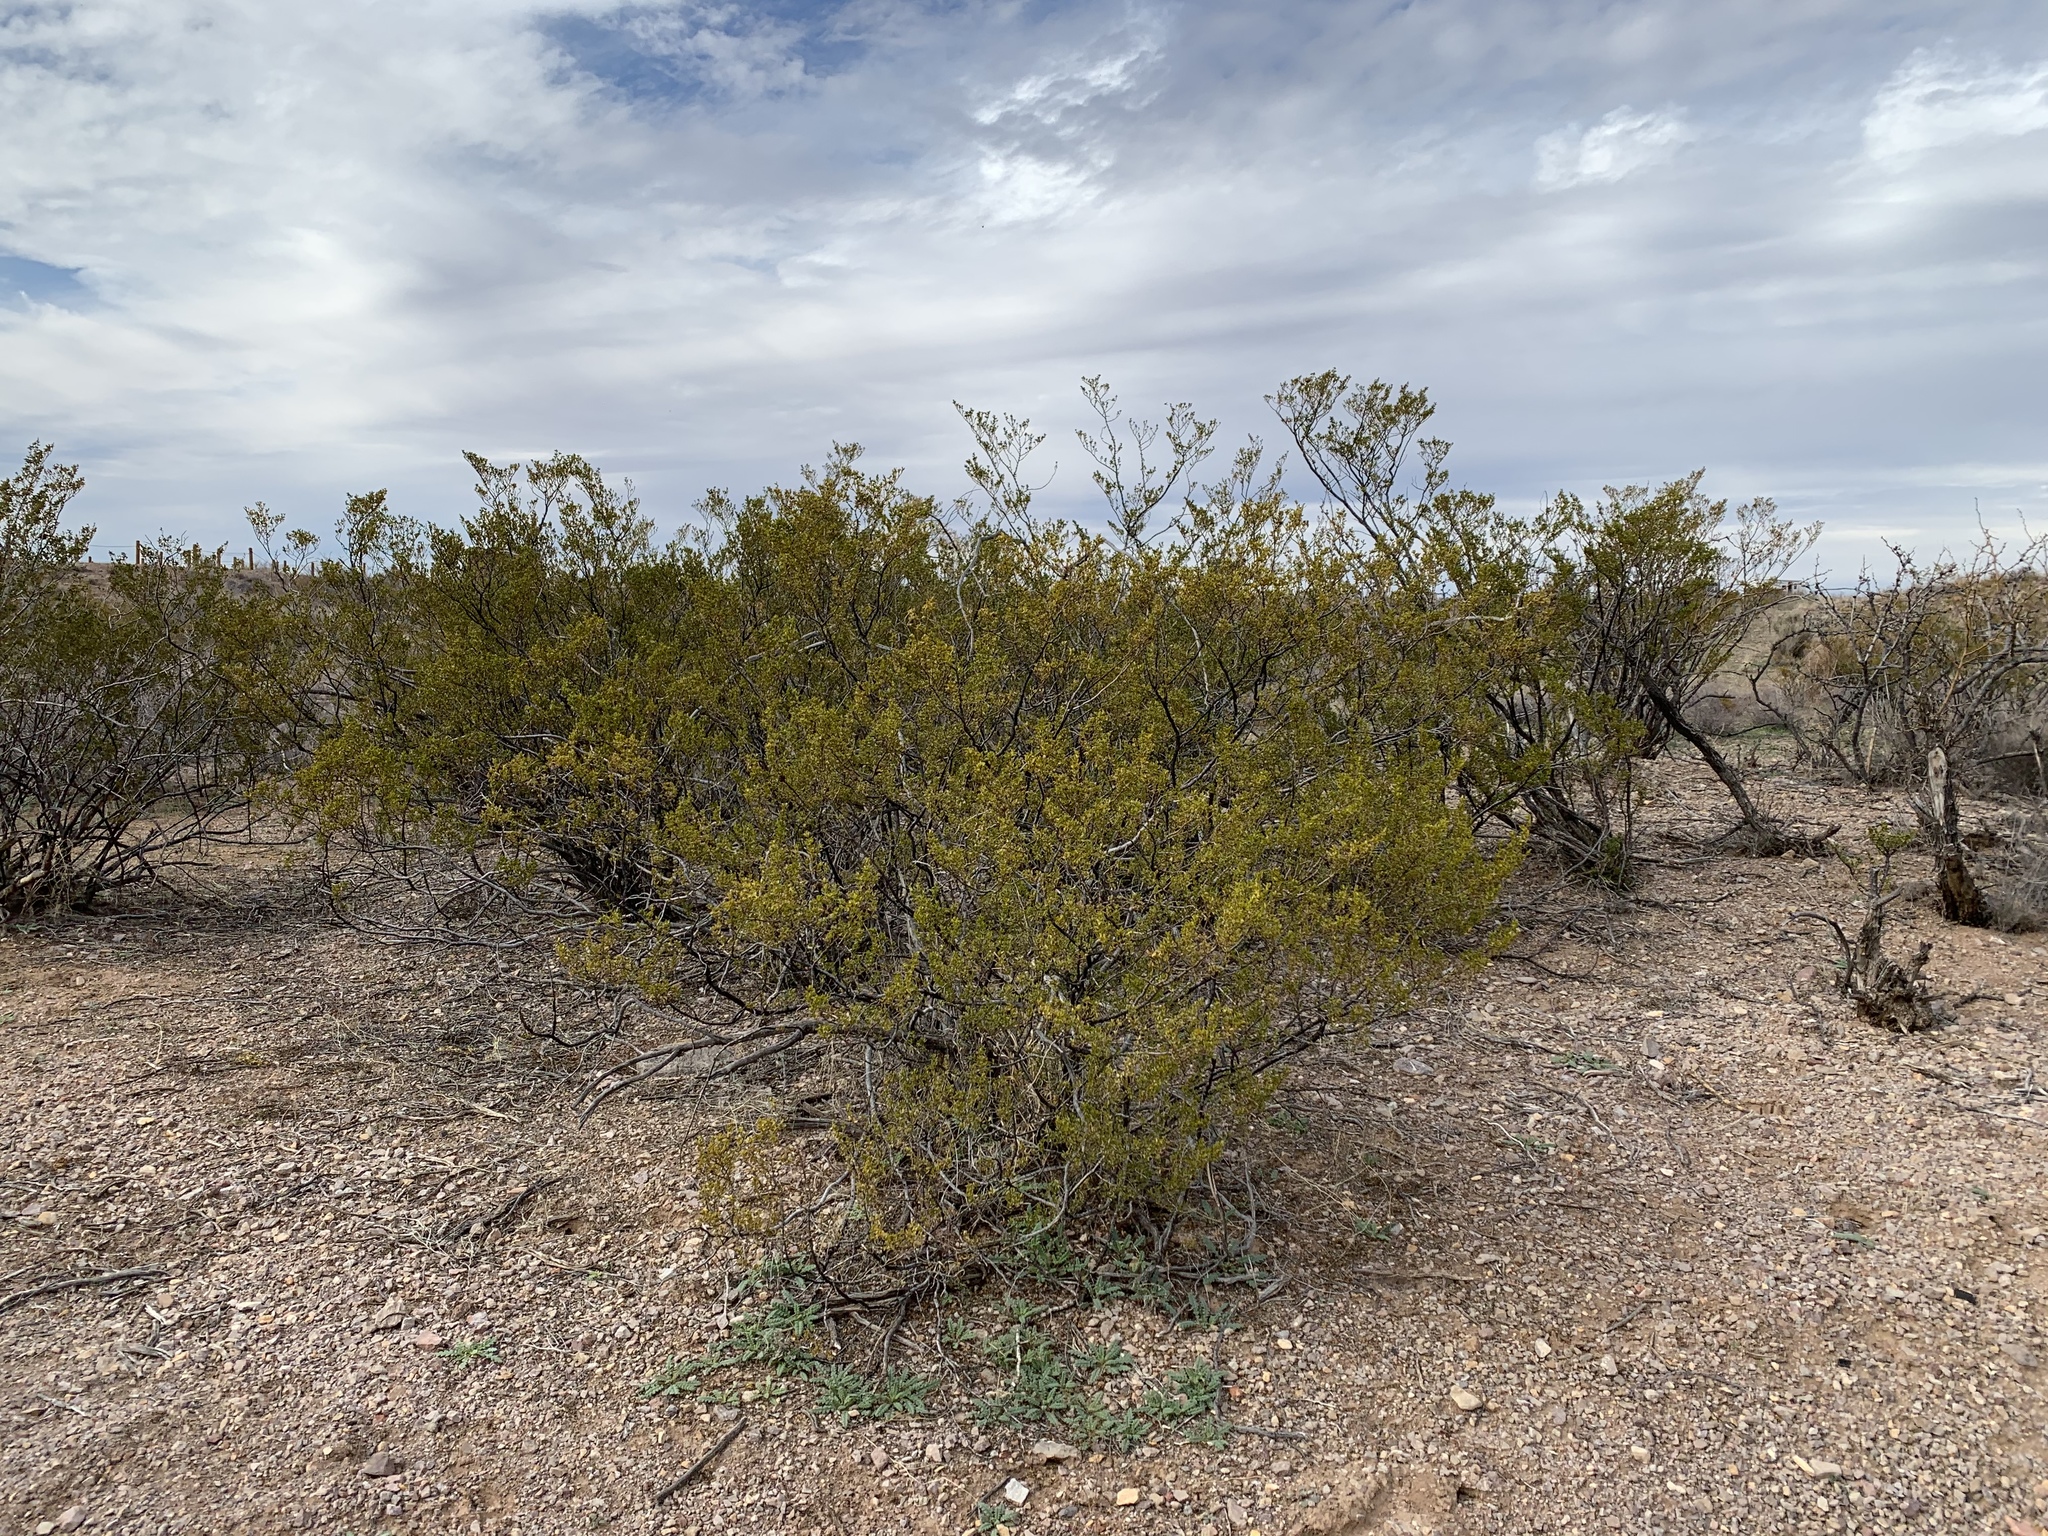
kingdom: Plantae
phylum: Tracheophyta
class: Magnoliopsida
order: Zygophyllales
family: Zygophyllaceae
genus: Larrea
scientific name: Larrea tridentata
